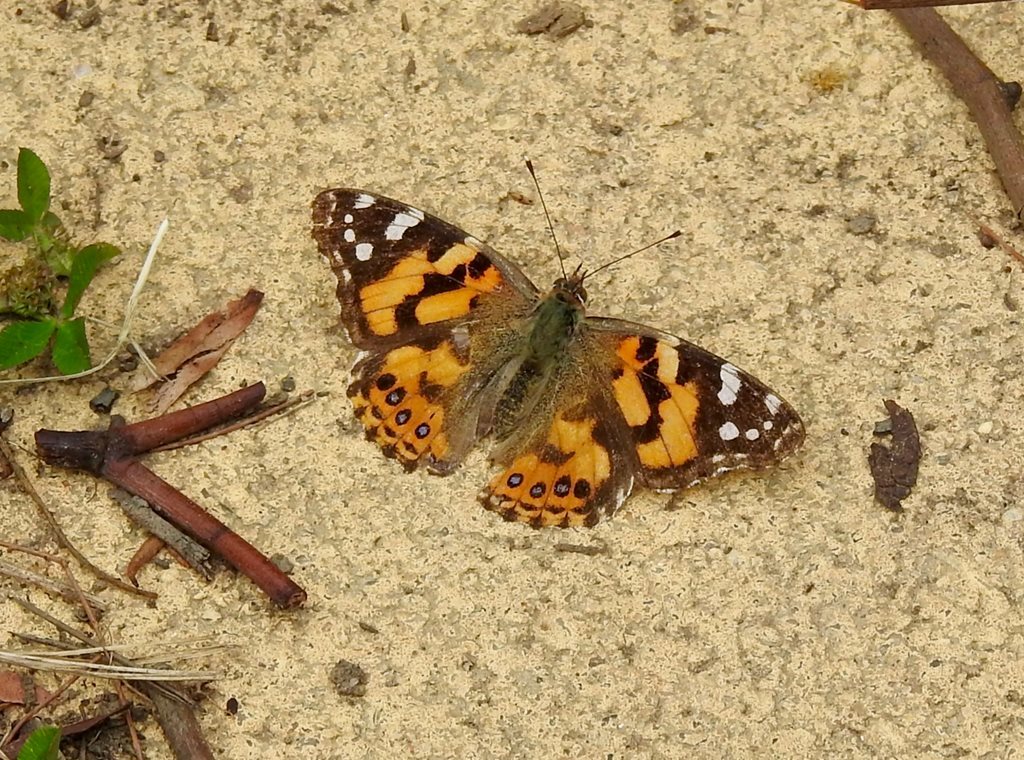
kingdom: Animalia
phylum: Arthropoda
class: Insecta
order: Lepidoptera
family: Nymphalidae
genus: Vanessa
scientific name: Vanessa kershawi
